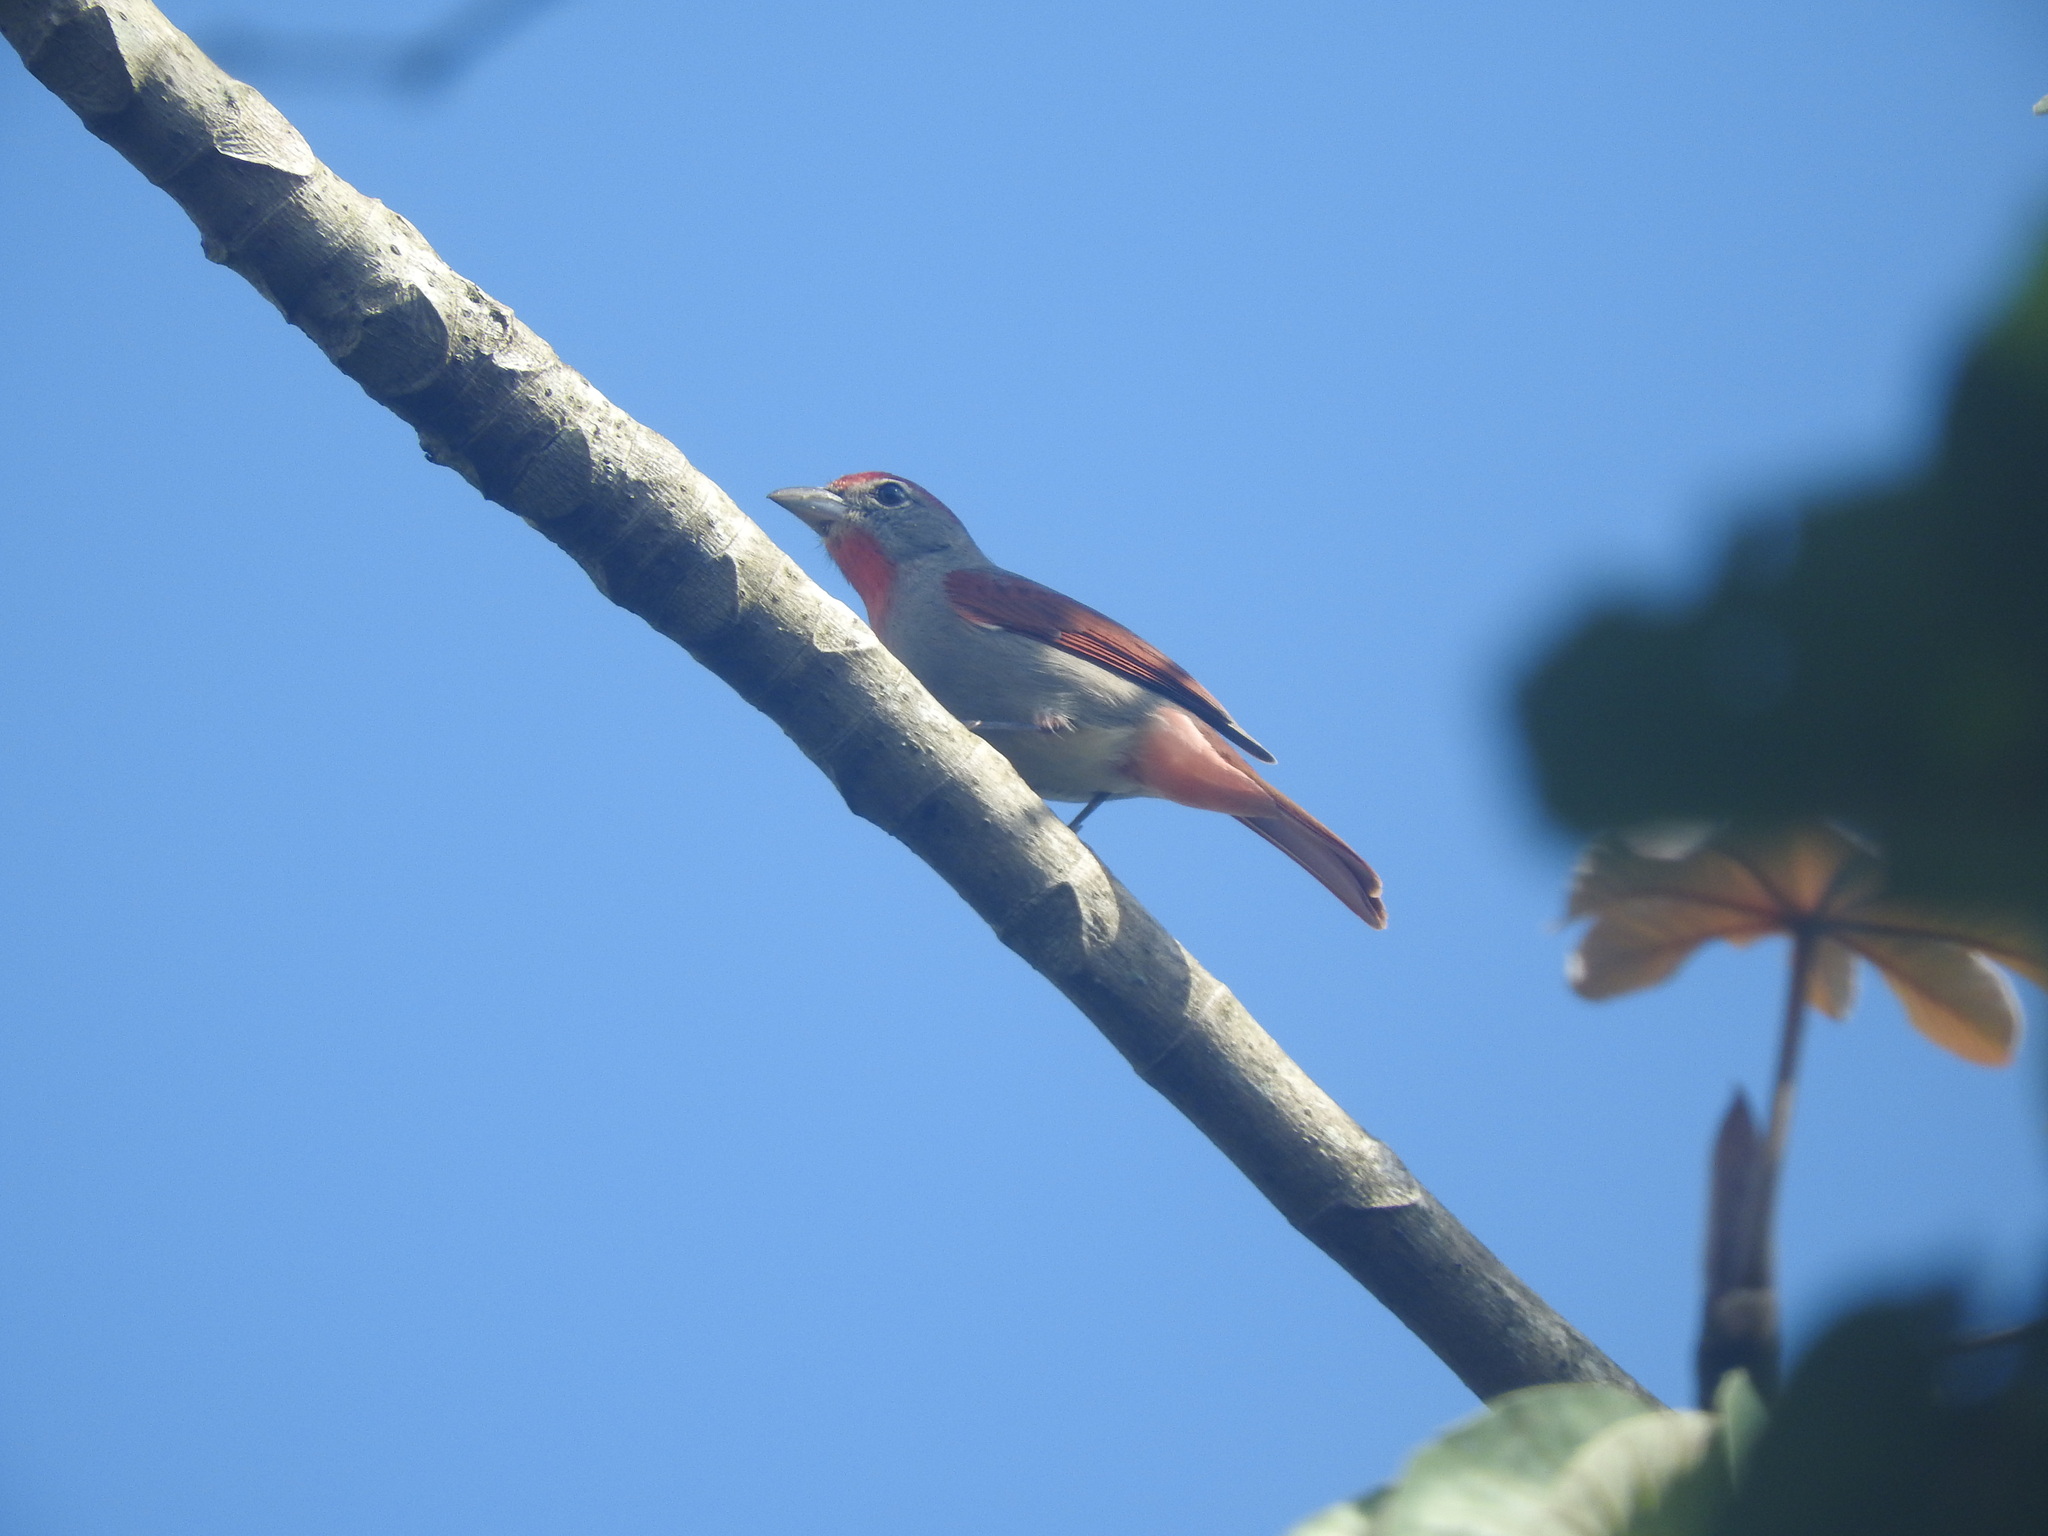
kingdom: Animalia
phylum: Chordata
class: Aves
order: Passeriformes
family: Cardinalidae
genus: Piranga
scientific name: Piranga roseogularis
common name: Rose-throated tanager
